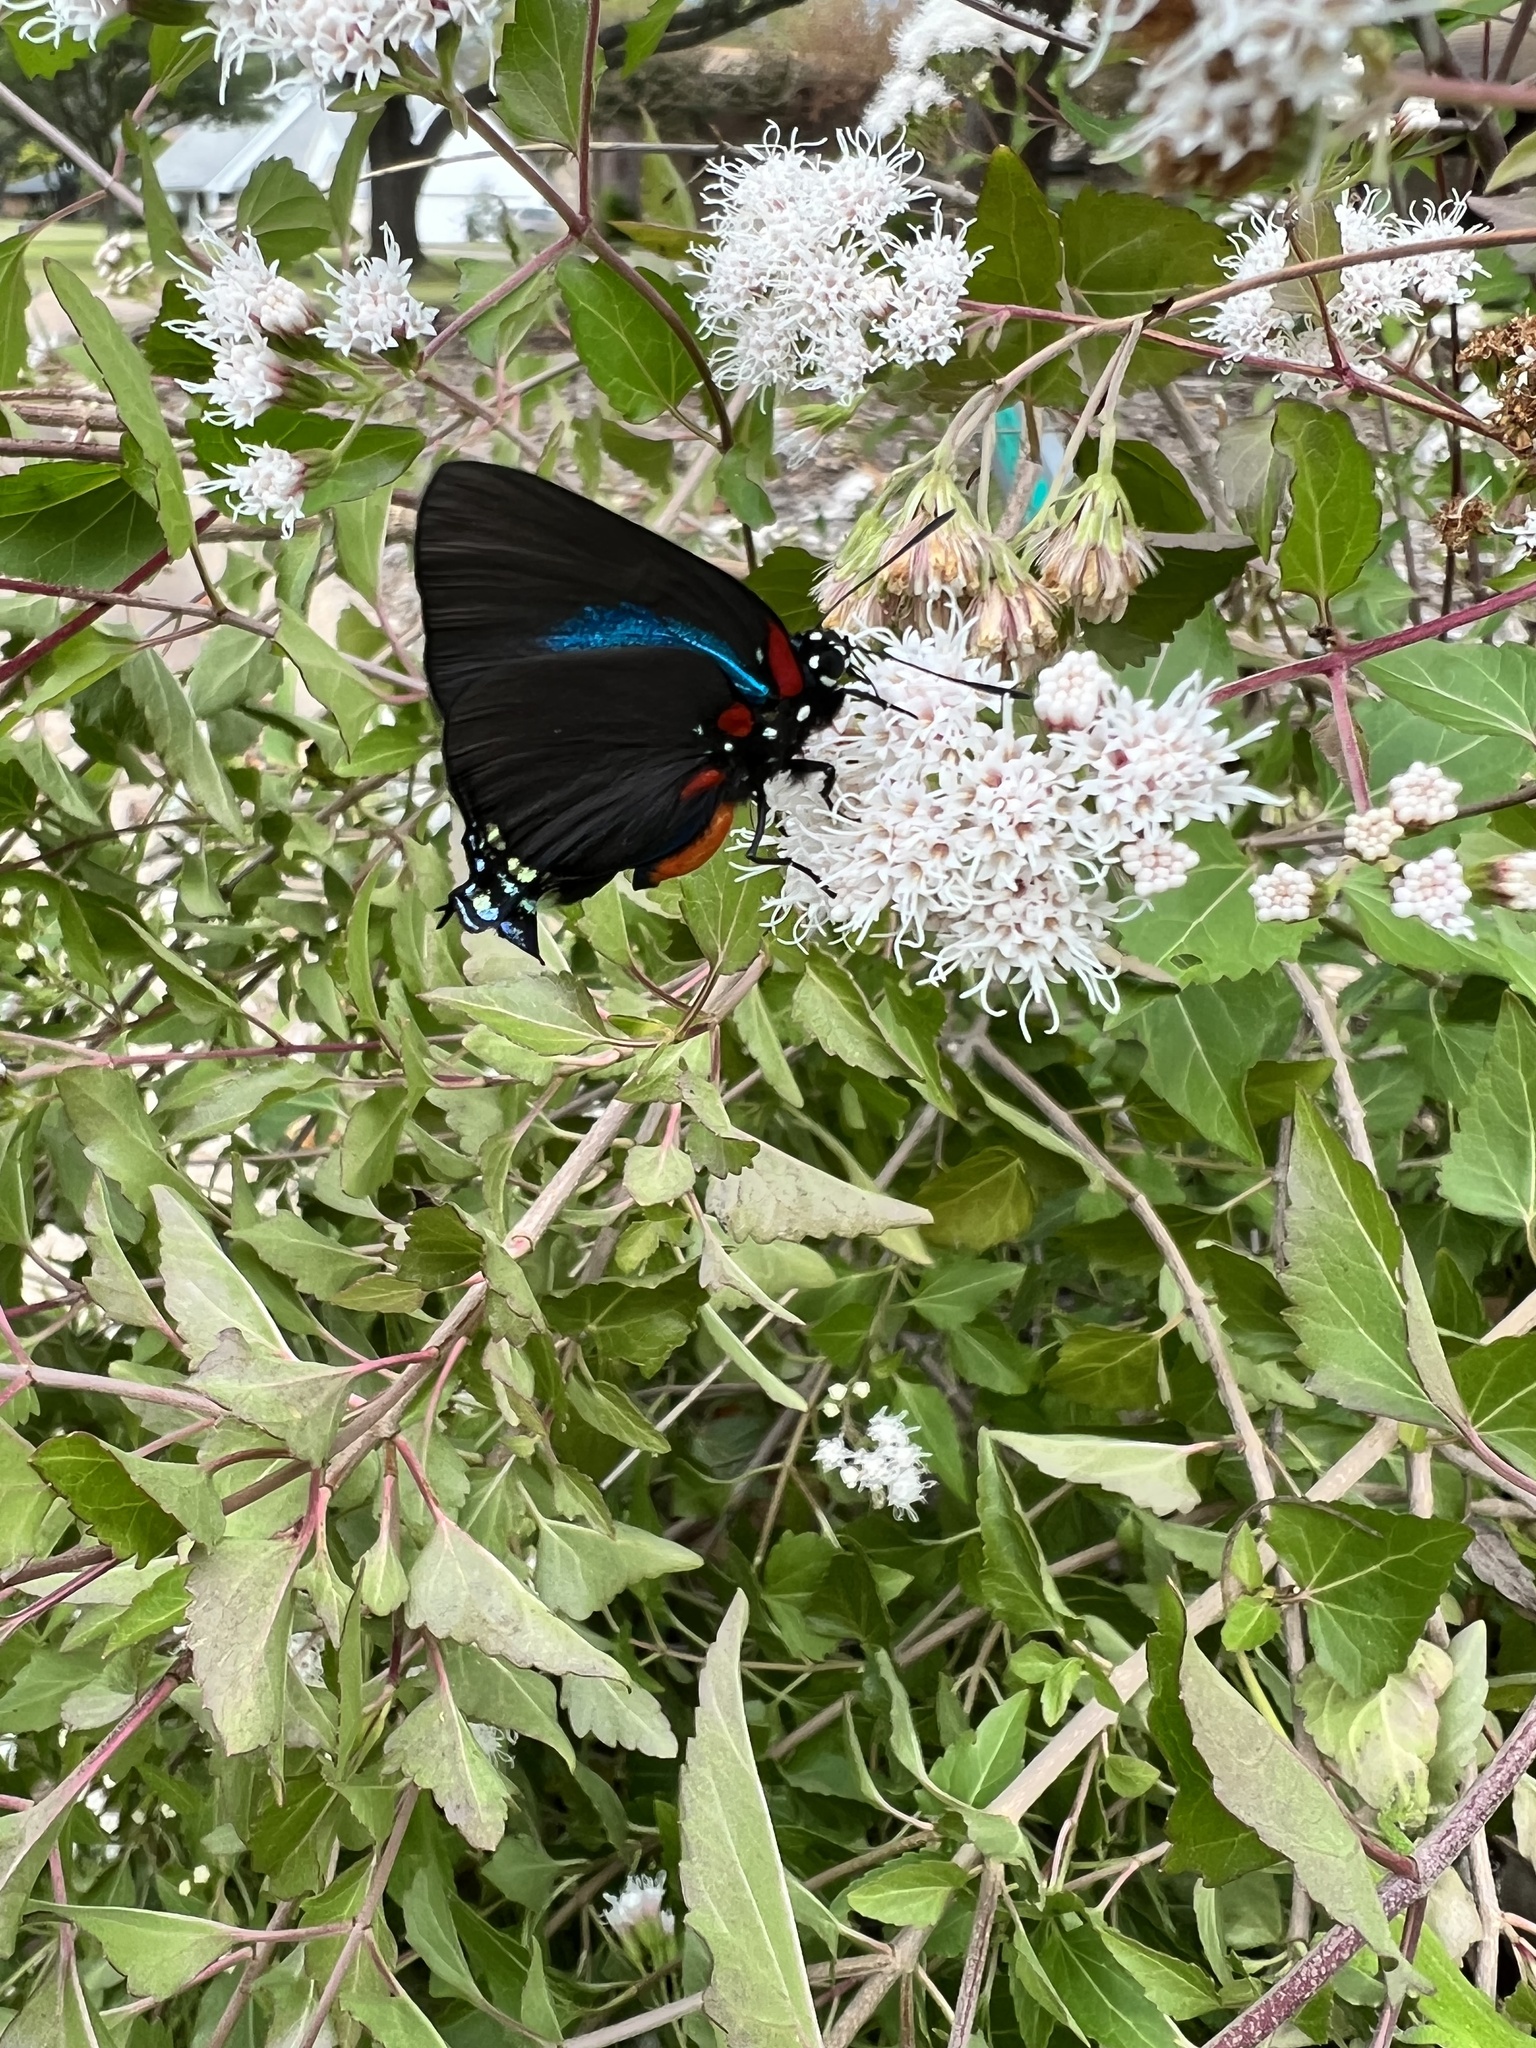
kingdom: Animalia
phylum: Arthropoda
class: Insecta
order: Lepidoptera
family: Lycaenidae
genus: Atlides
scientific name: Atlides halesus
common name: Great purple hairstreak
